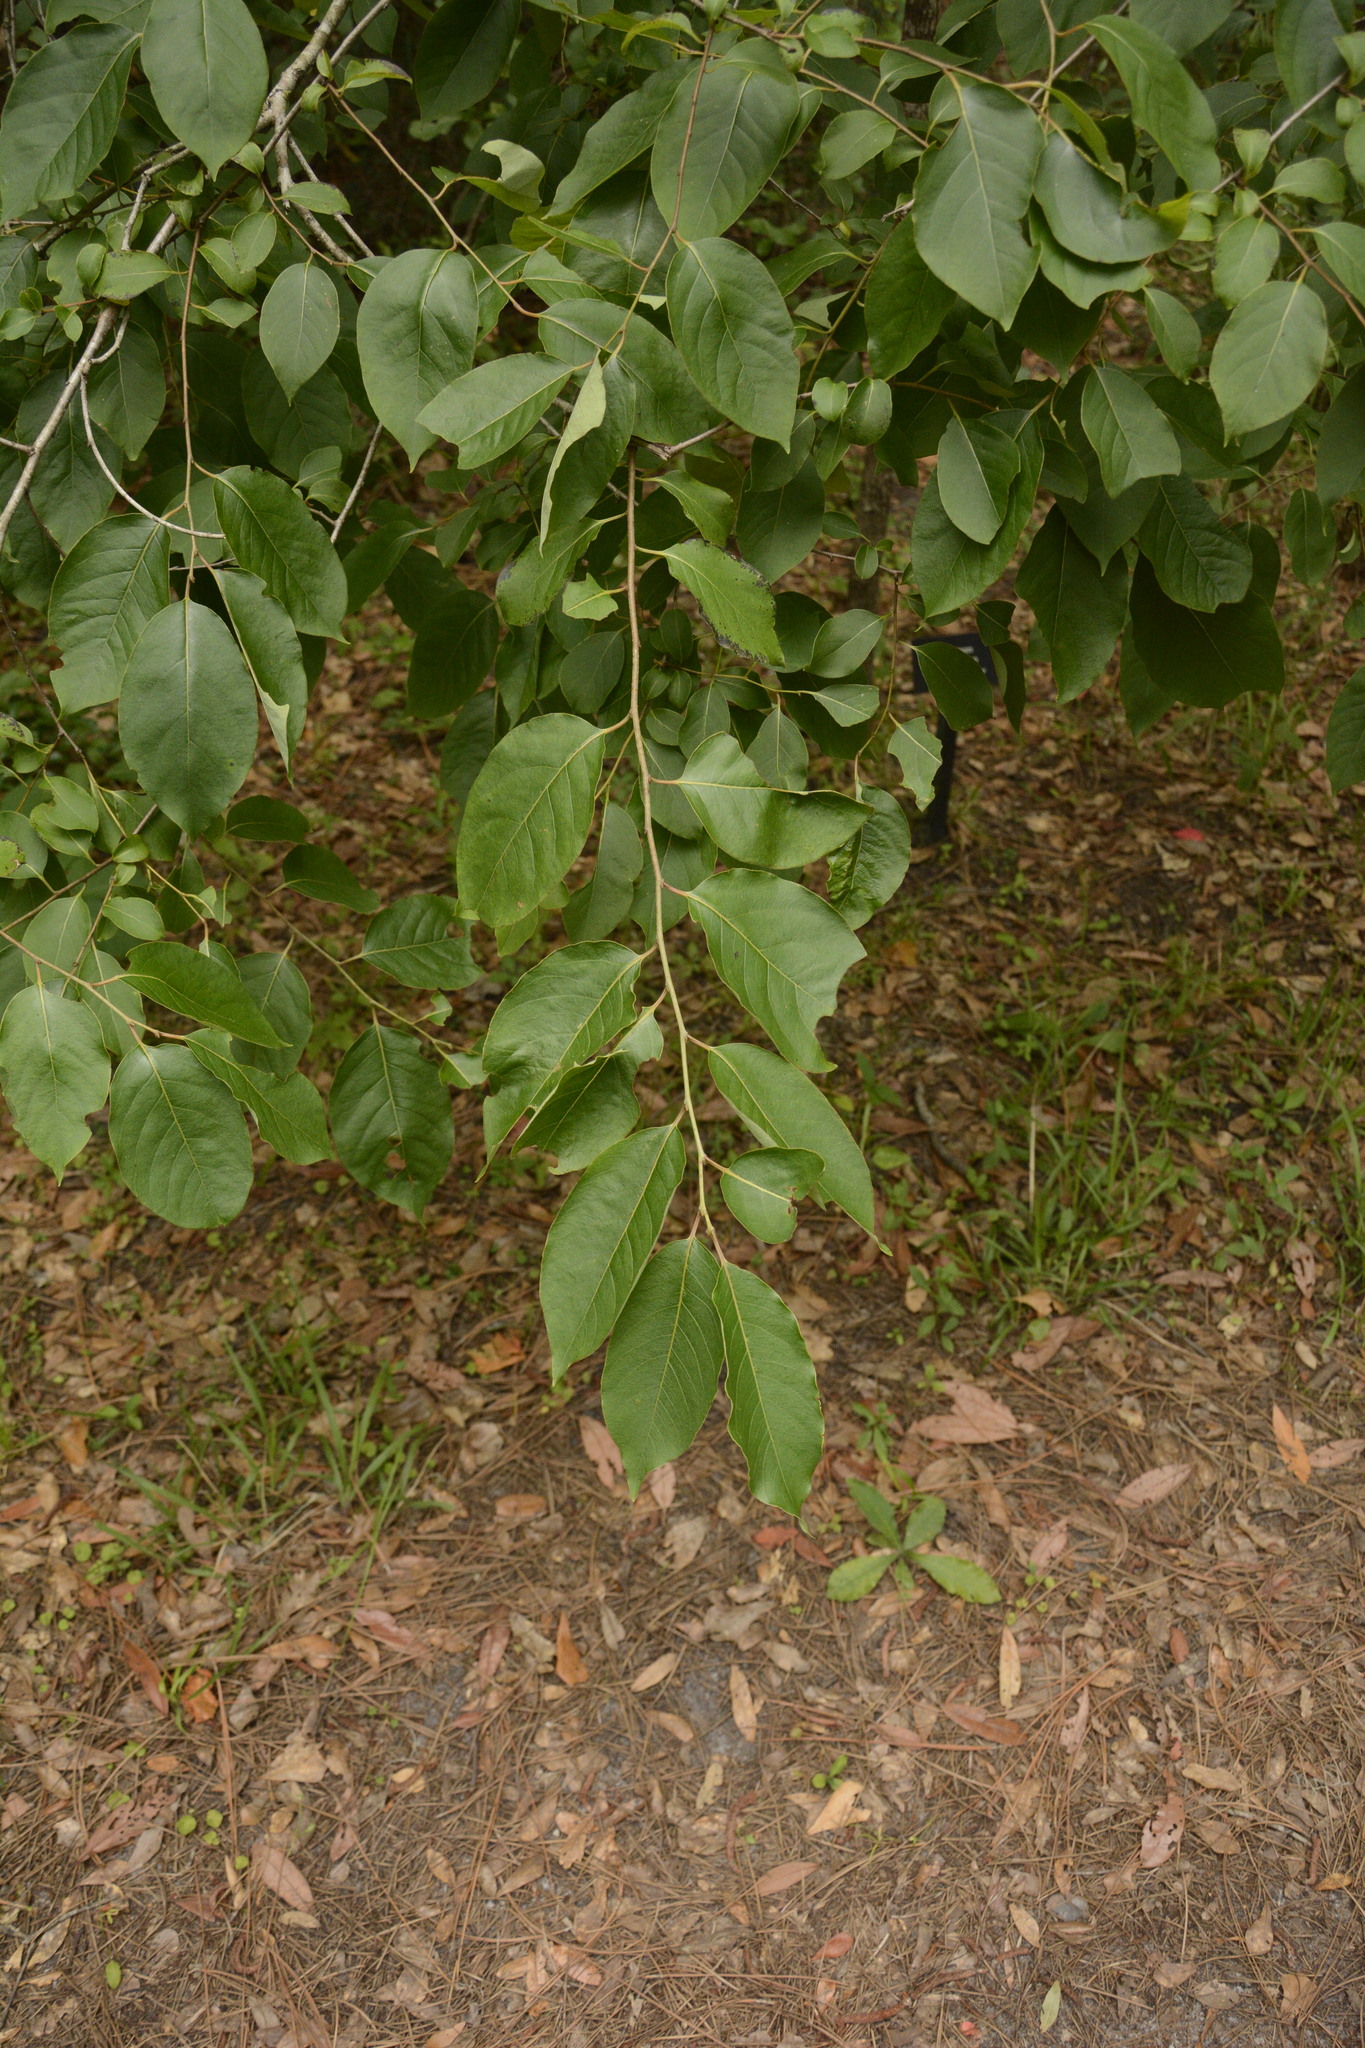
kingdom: Plantae
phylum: Tracheophyta
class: Magnoliopsida
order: Ericales
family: Ebenaceae
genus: Diospyros
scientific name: Diospyros virginiana
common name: Persimmon
